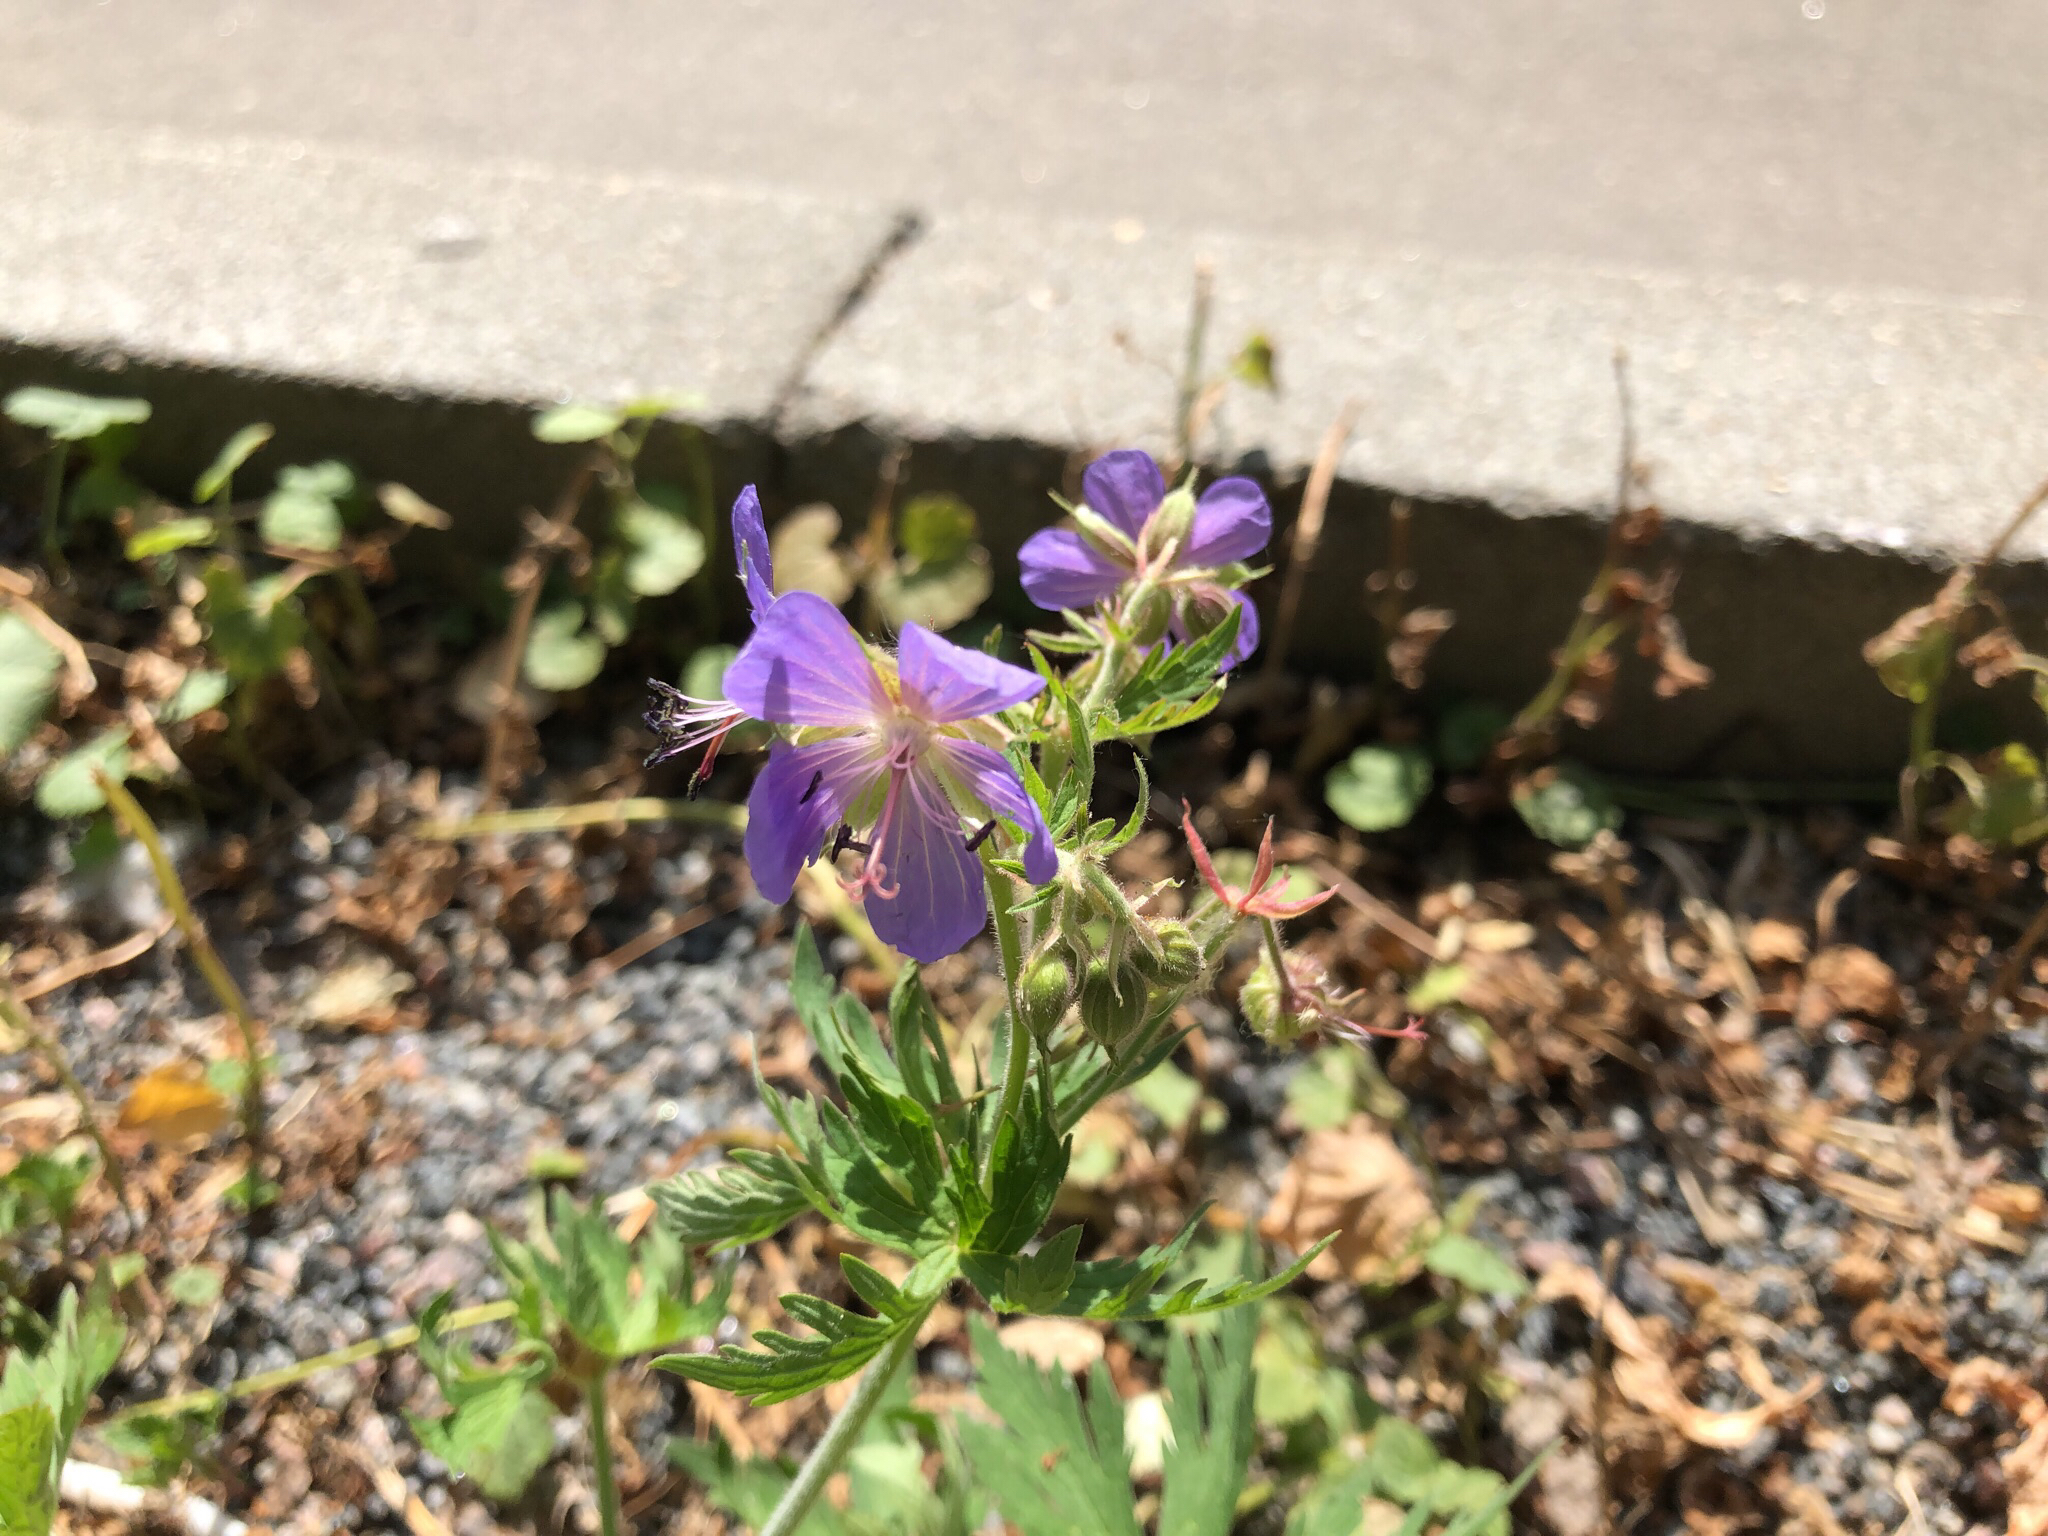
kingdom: Plantae
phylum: Tracheophyta
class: Magnoliopsida
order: Geraniales
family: Geraniaceae
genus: Geranium
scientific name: Geranium pratense
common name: Meadow crane's-bill
